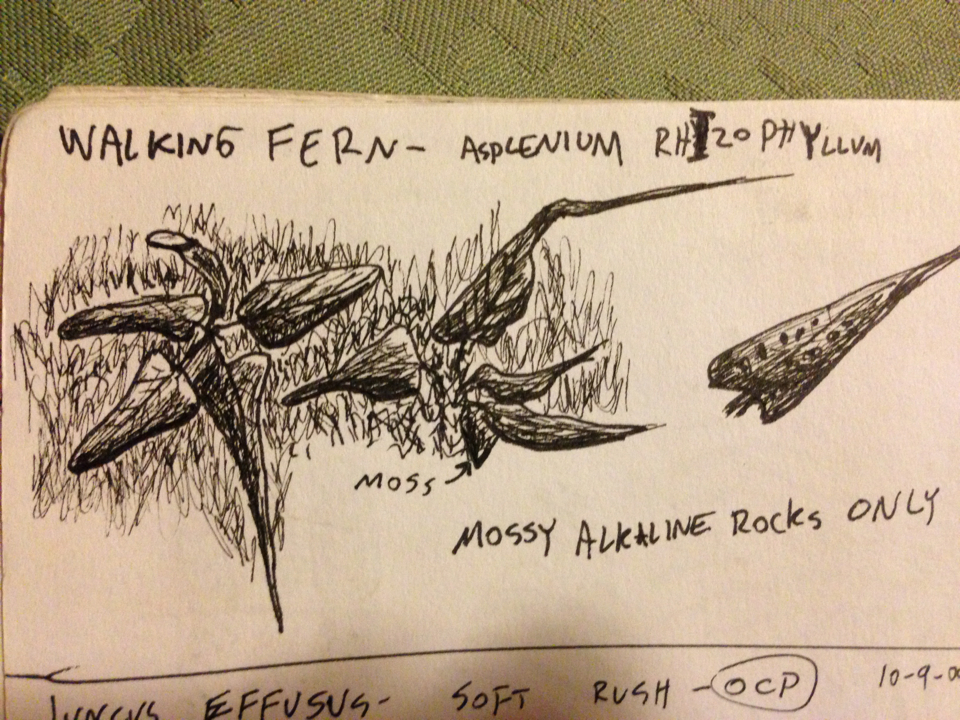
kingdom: Plantae
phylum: Tracheophyta
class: Polypodiopsida
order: Polypodiales
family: Aspleniaceae
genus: Asplenium
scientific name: Asplenium rhizophyllum
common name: Walking fern
